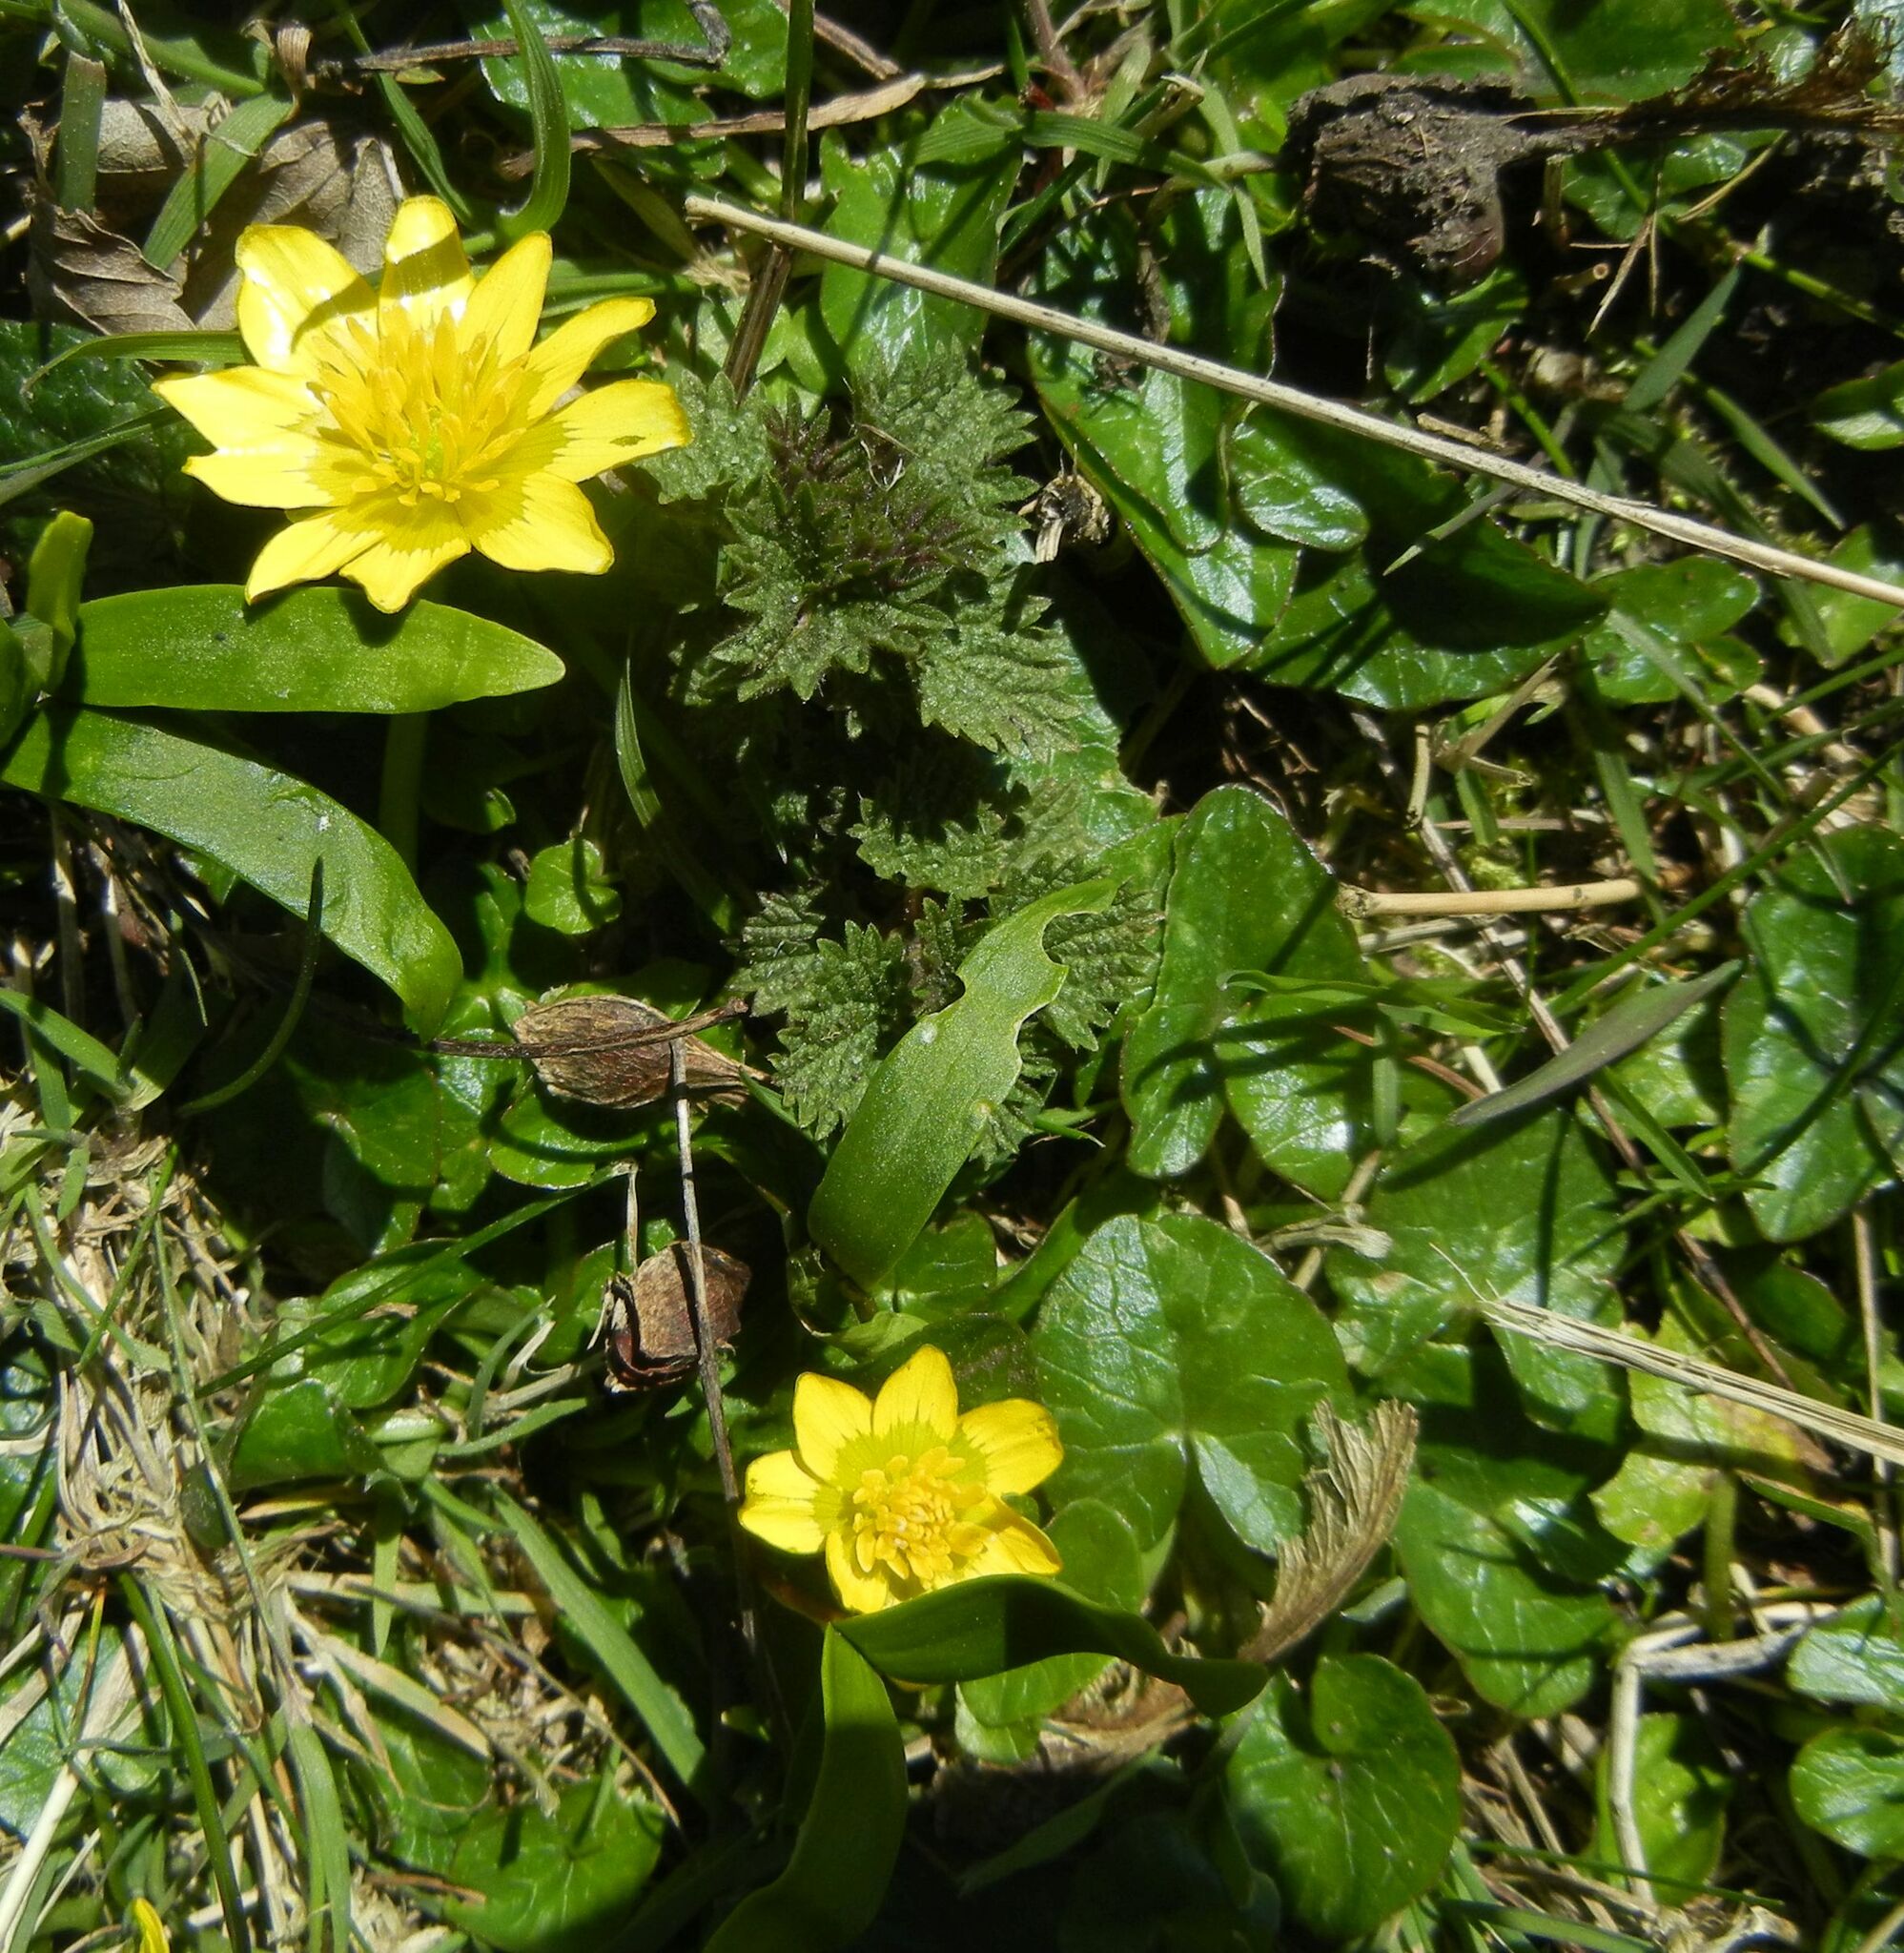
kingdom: Plantae
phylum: Tracheophyta
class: Magnoliopsida
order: Ranunculales
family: Ranunculaceae
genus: Ficaria
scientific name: Ficaria verna
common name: Lesser celandine
